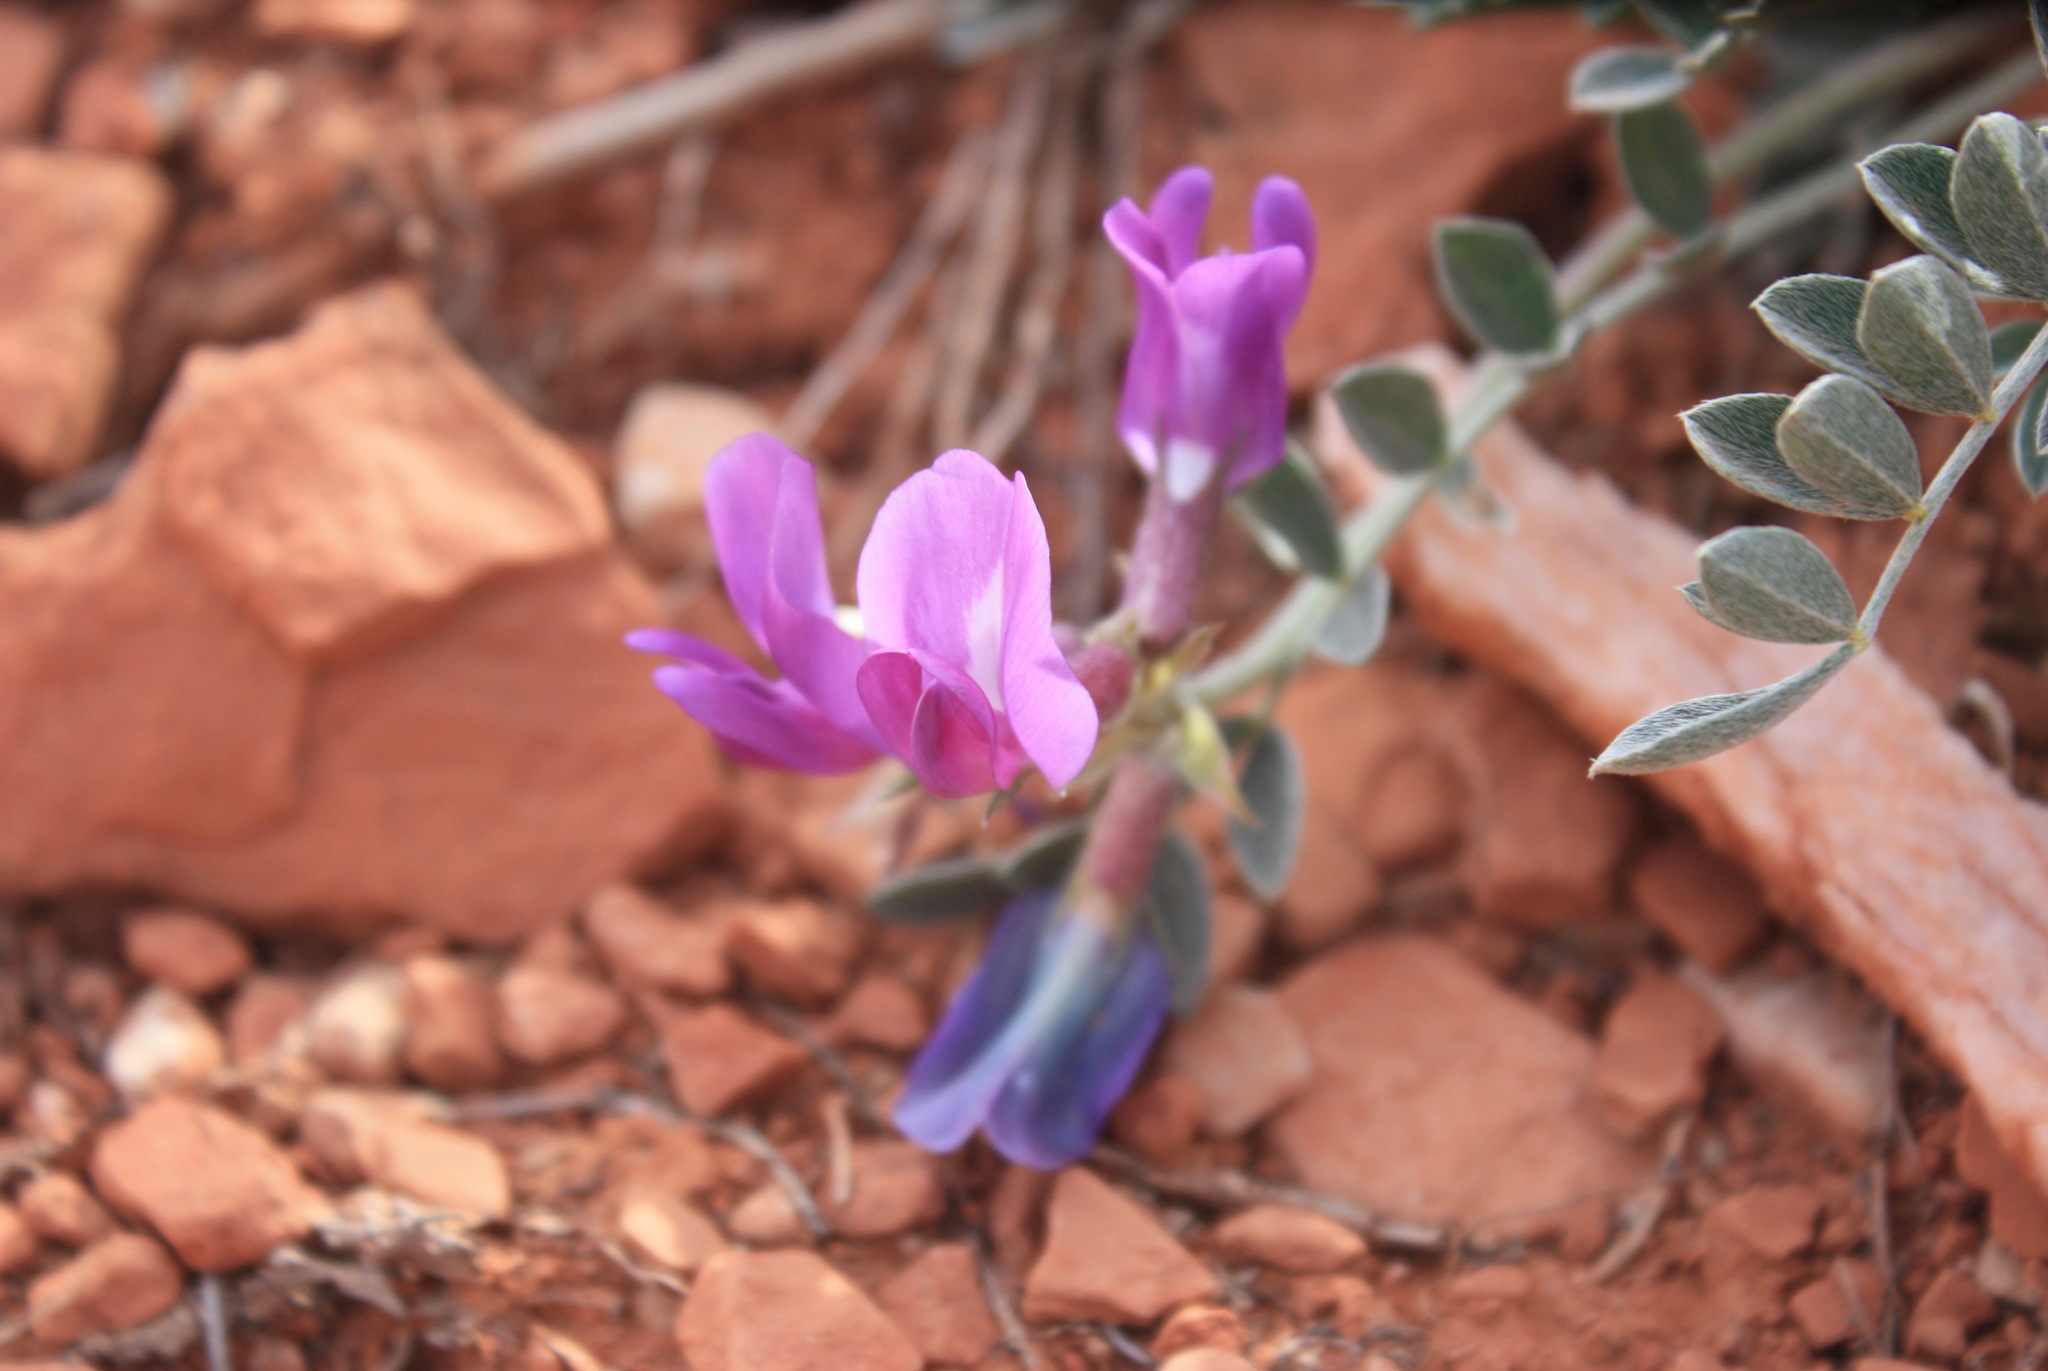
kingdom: Plantae
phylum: Tracheophyta
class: Magnoliopsida
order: Fabales
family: Fabaceae
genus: Astragalus
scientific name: Astragalus missouriensis
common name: Missouri milk-vetch
